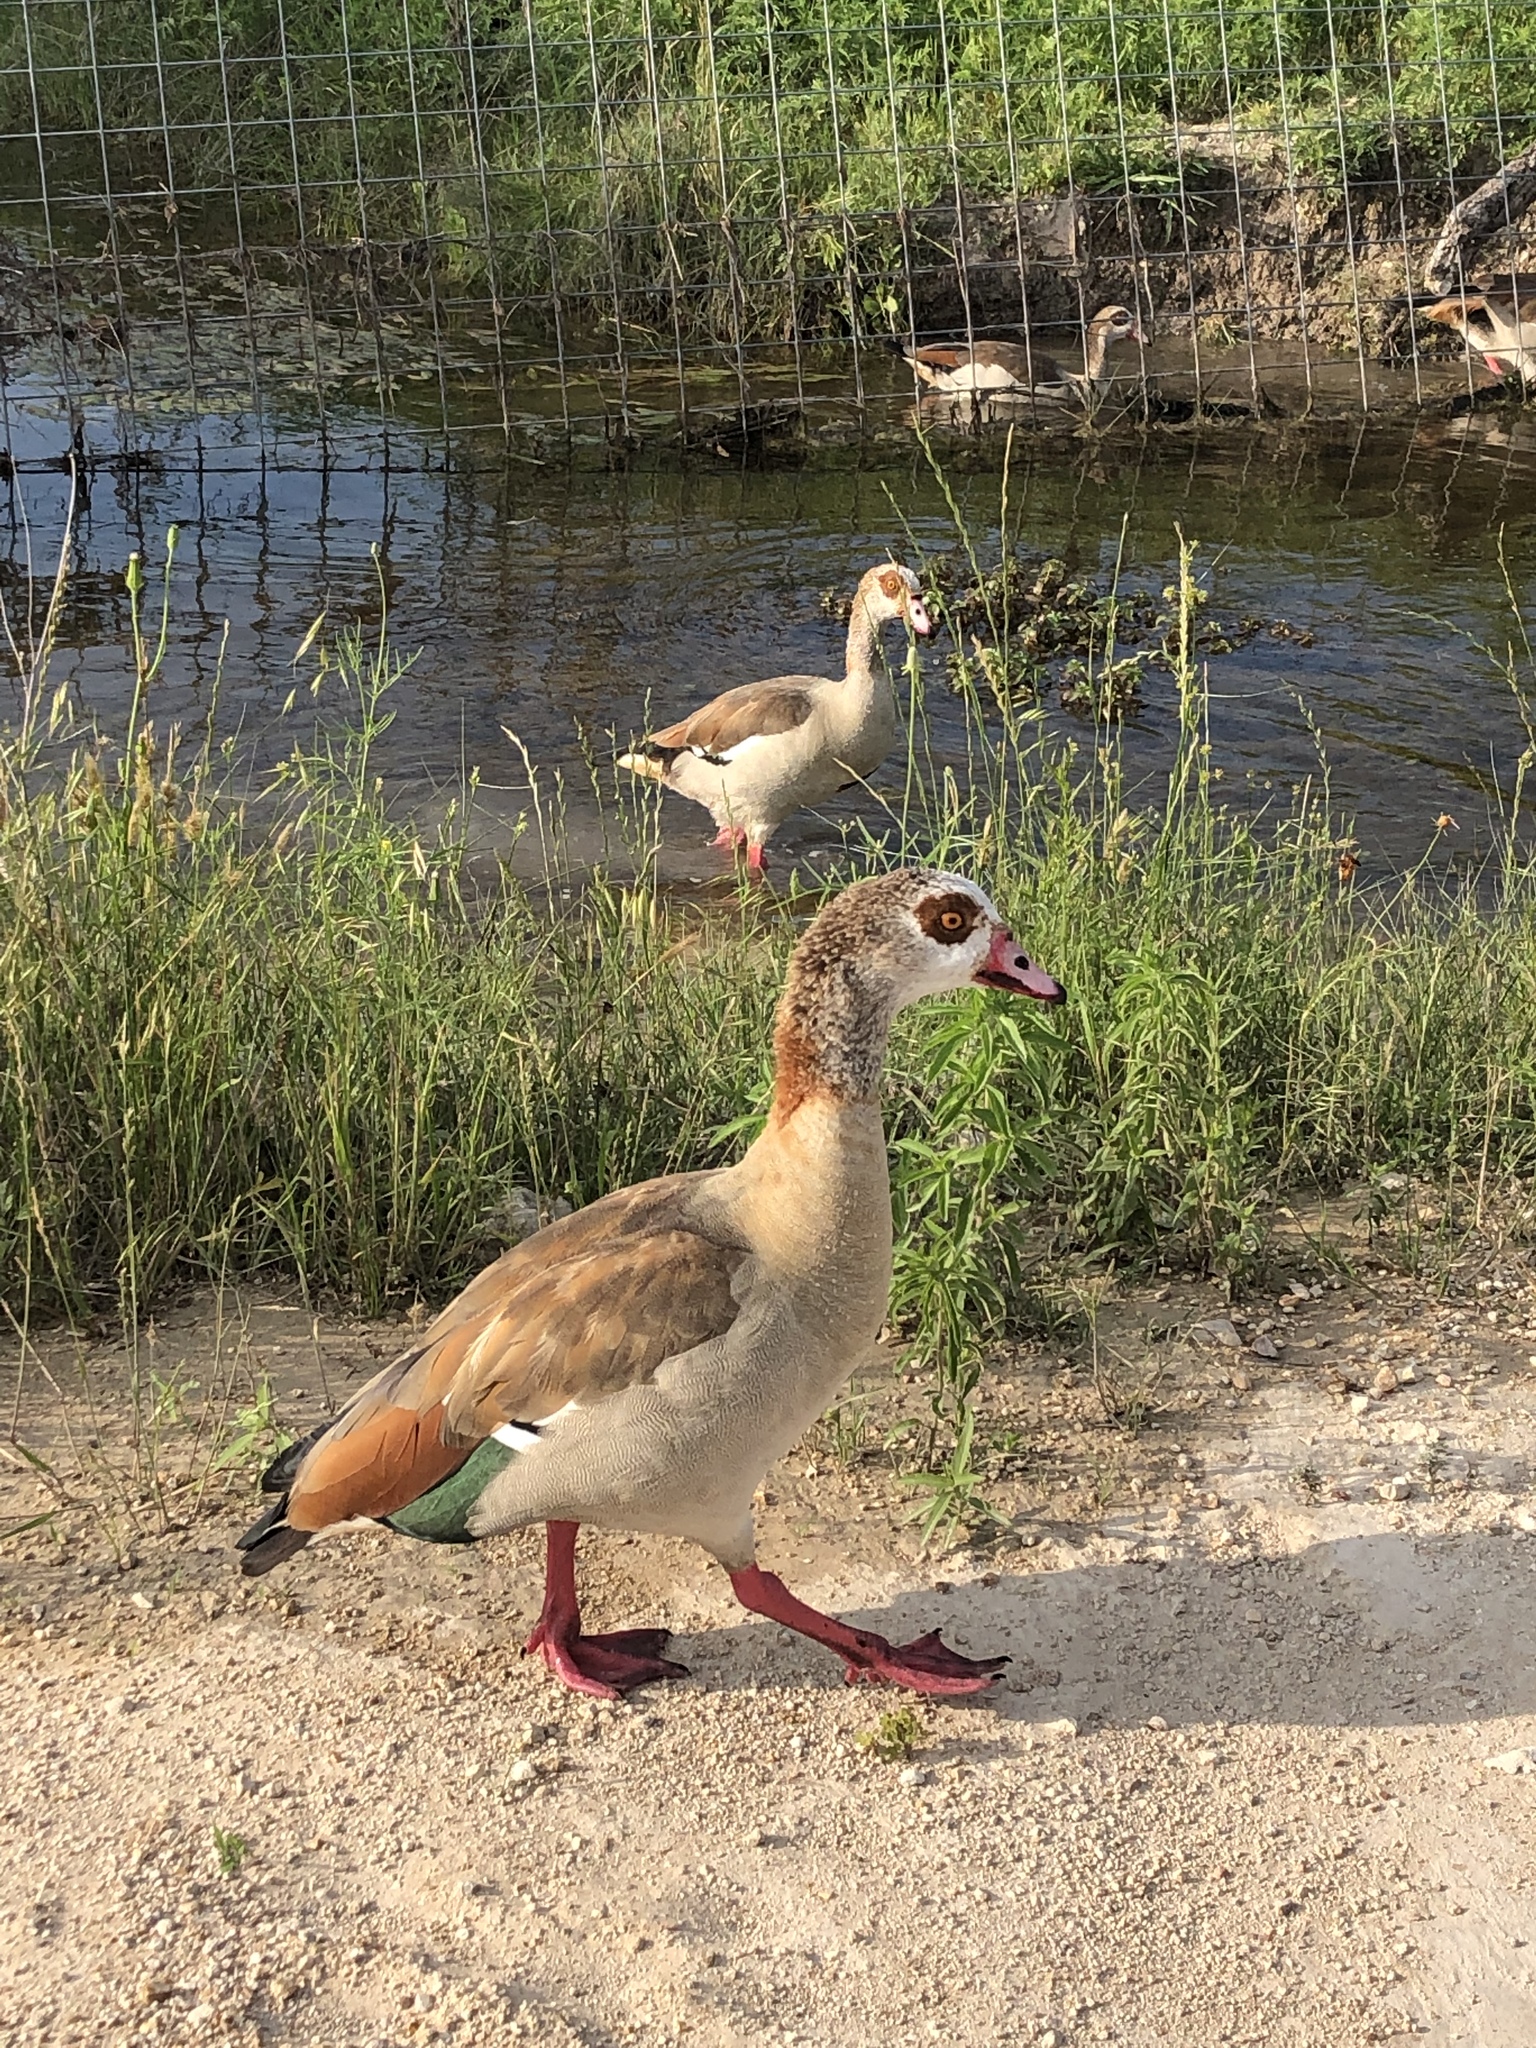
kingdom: Animalia
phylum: Chordata
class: Aves
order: Anseriformes
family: Anatidae
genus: Alopochen
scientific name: Alopochen aegyptiaca
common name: Egyptian goose
